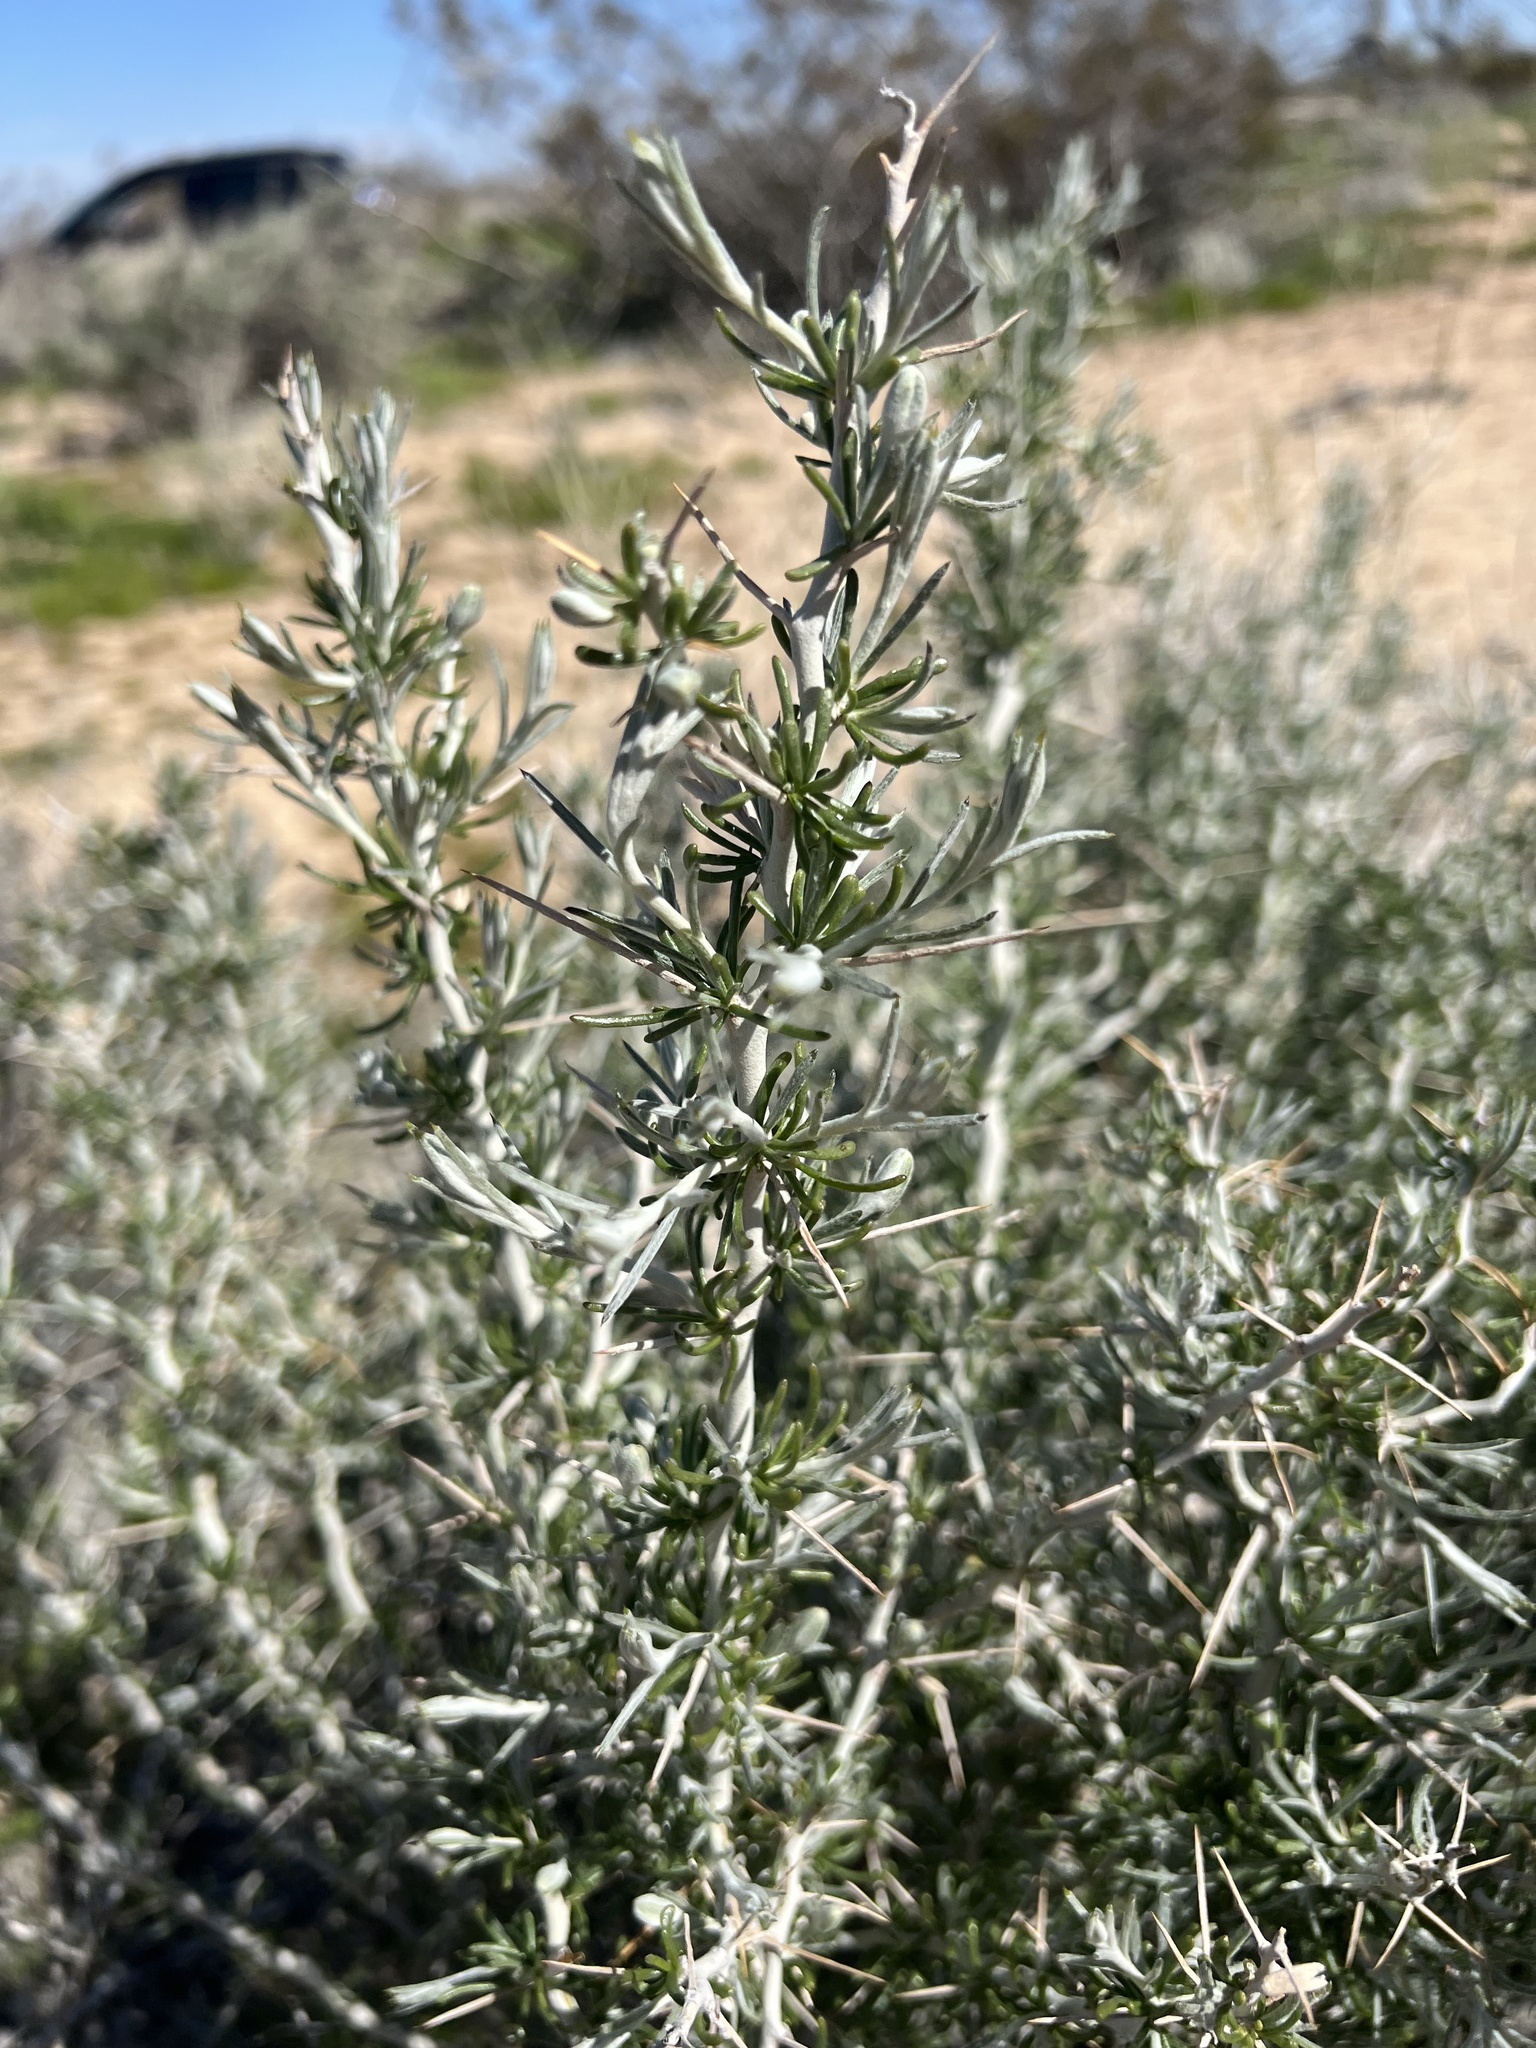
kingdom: Plantae
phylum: Tracheophyta
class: Magnoliopsida
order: Asterales
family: Asteraceae
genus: Tetradymia
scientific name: Tetradymia axillaris
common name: Long-spine horsebrush
